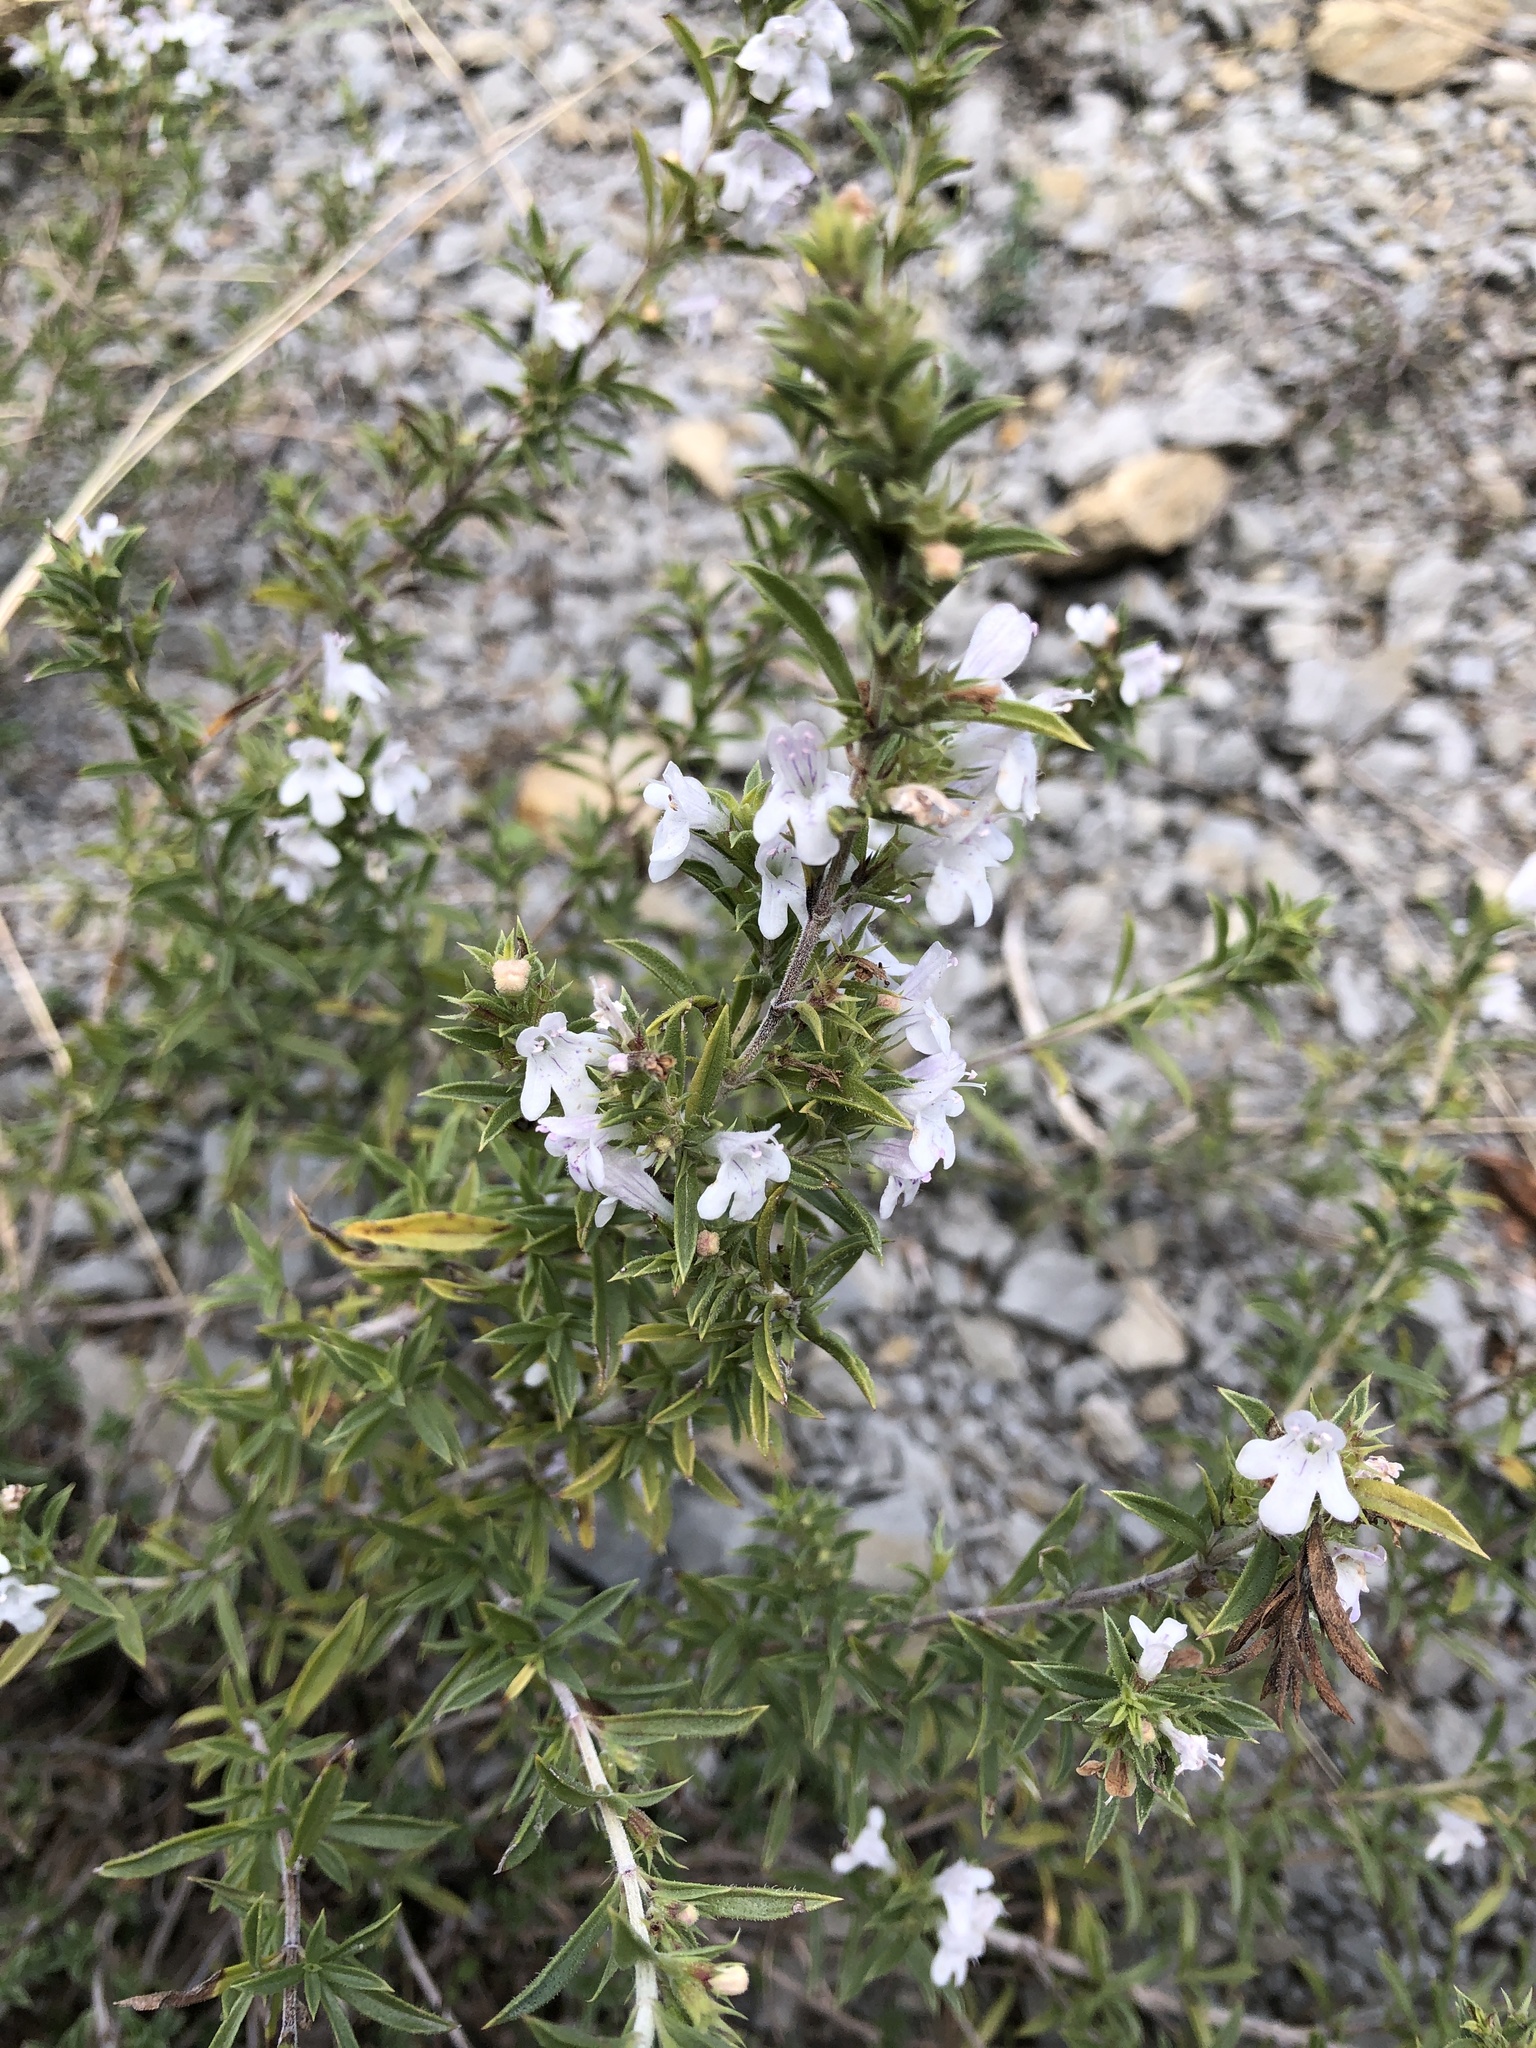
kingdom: Plantae
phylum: Tracheophyta
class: Magnoliopsida
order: Lamiales
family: Lamiaceae
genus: Satureja
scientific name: Satureja montana
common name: Winter savory
